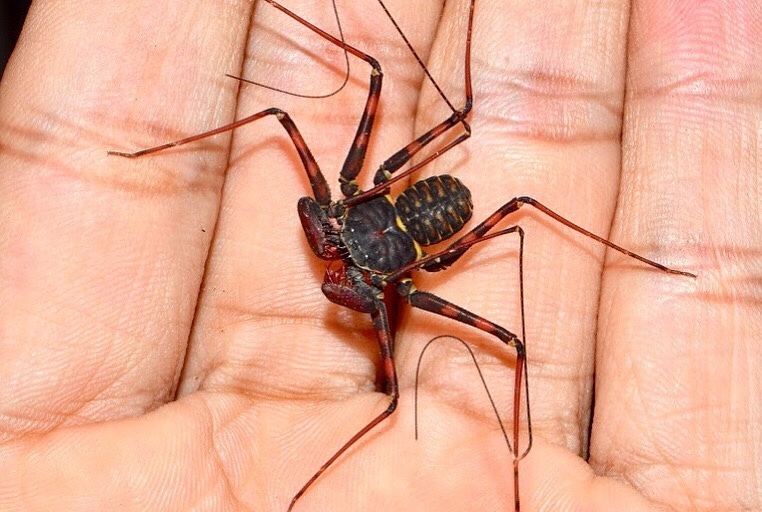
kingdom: Animalia
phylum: Arthropoda
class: Arachnida
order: Amblypygi
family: Phrynidae
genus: Phrynus
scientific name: Phrynus parvulus
